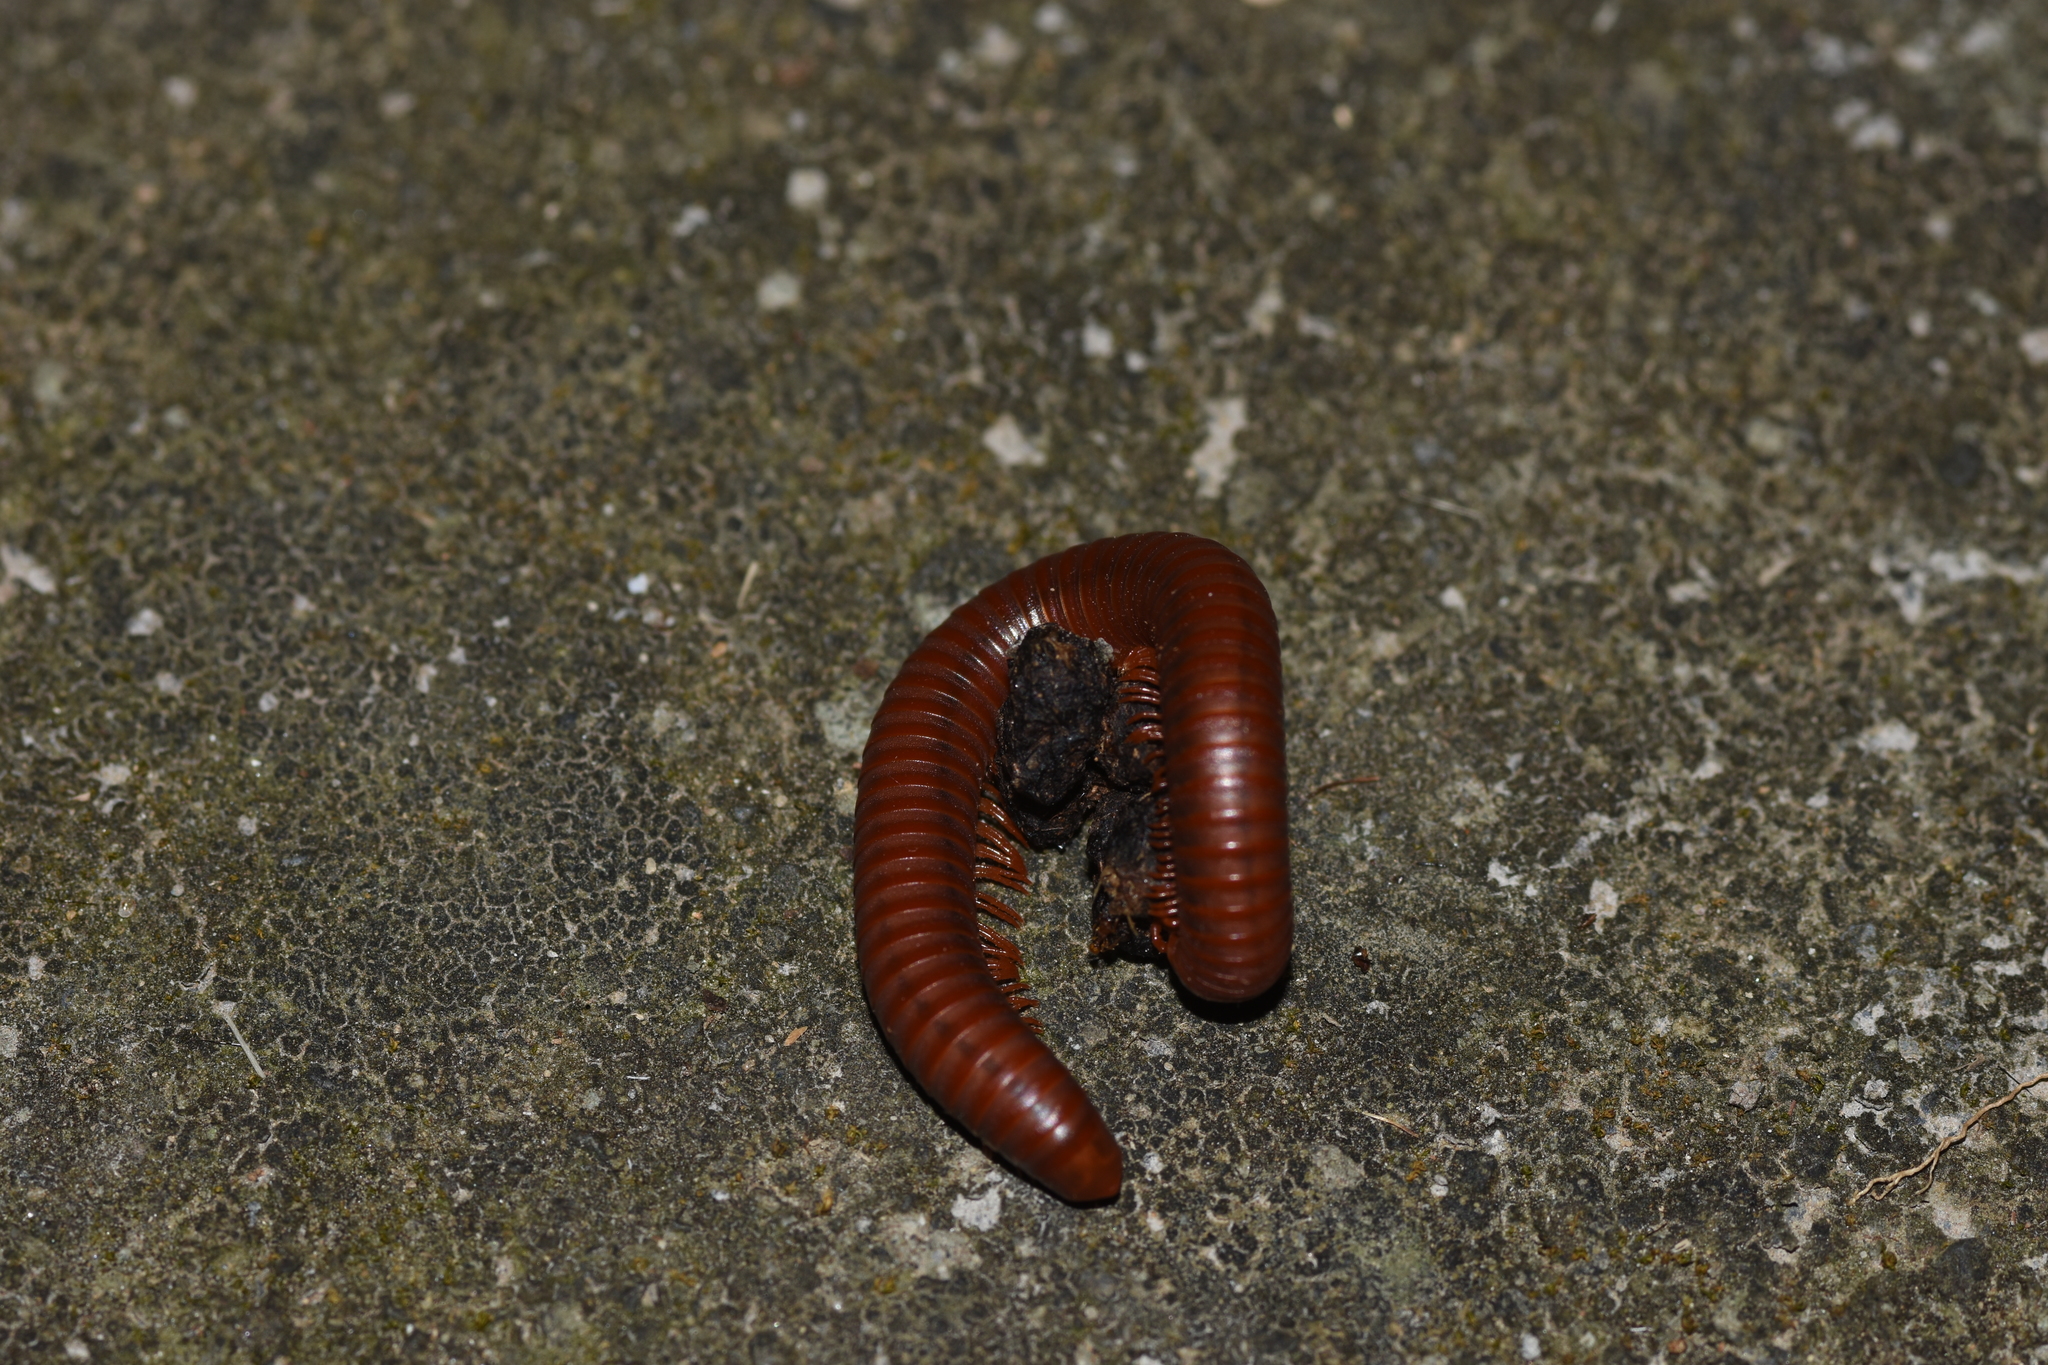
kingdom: Animalia
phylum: Arthropoda
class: Diplopoda
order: Spirobolida
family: Pachybolidae
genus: Trigoniulus
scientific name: Trigoniulus corallinus
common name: Millipede
